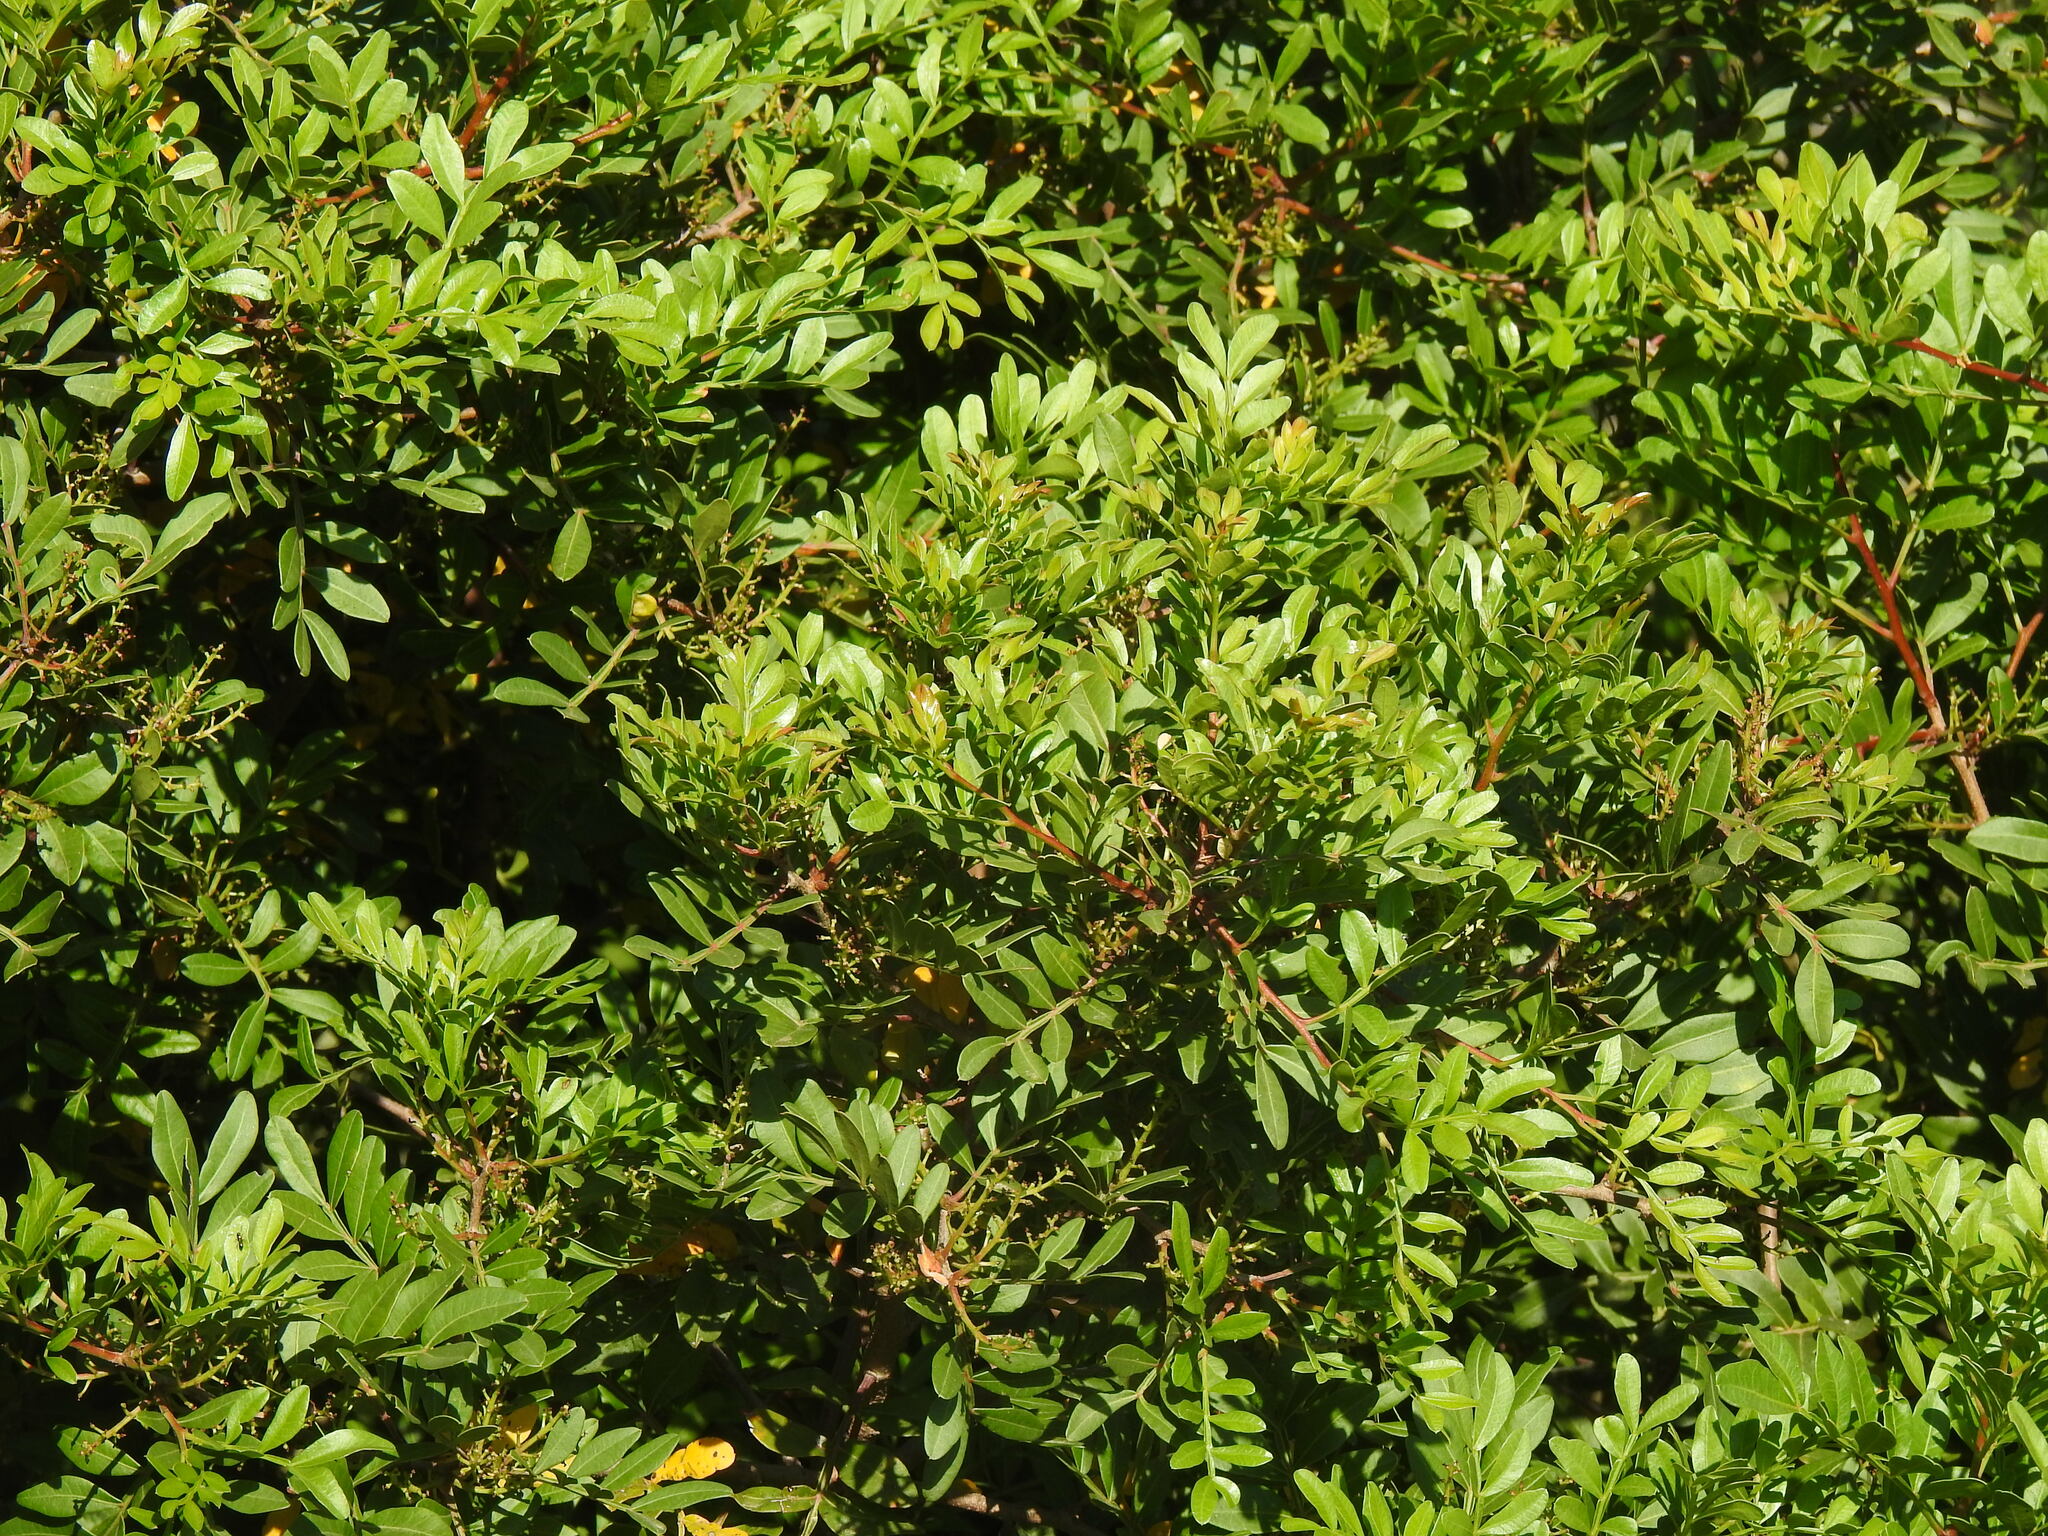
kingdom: Plantae
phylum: Tracheophyta
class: Magnoliopsida
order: Sapindales
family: Anacardiaceae
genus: Pistacia
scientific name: Pistacia lentiscus
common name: Lentisk
